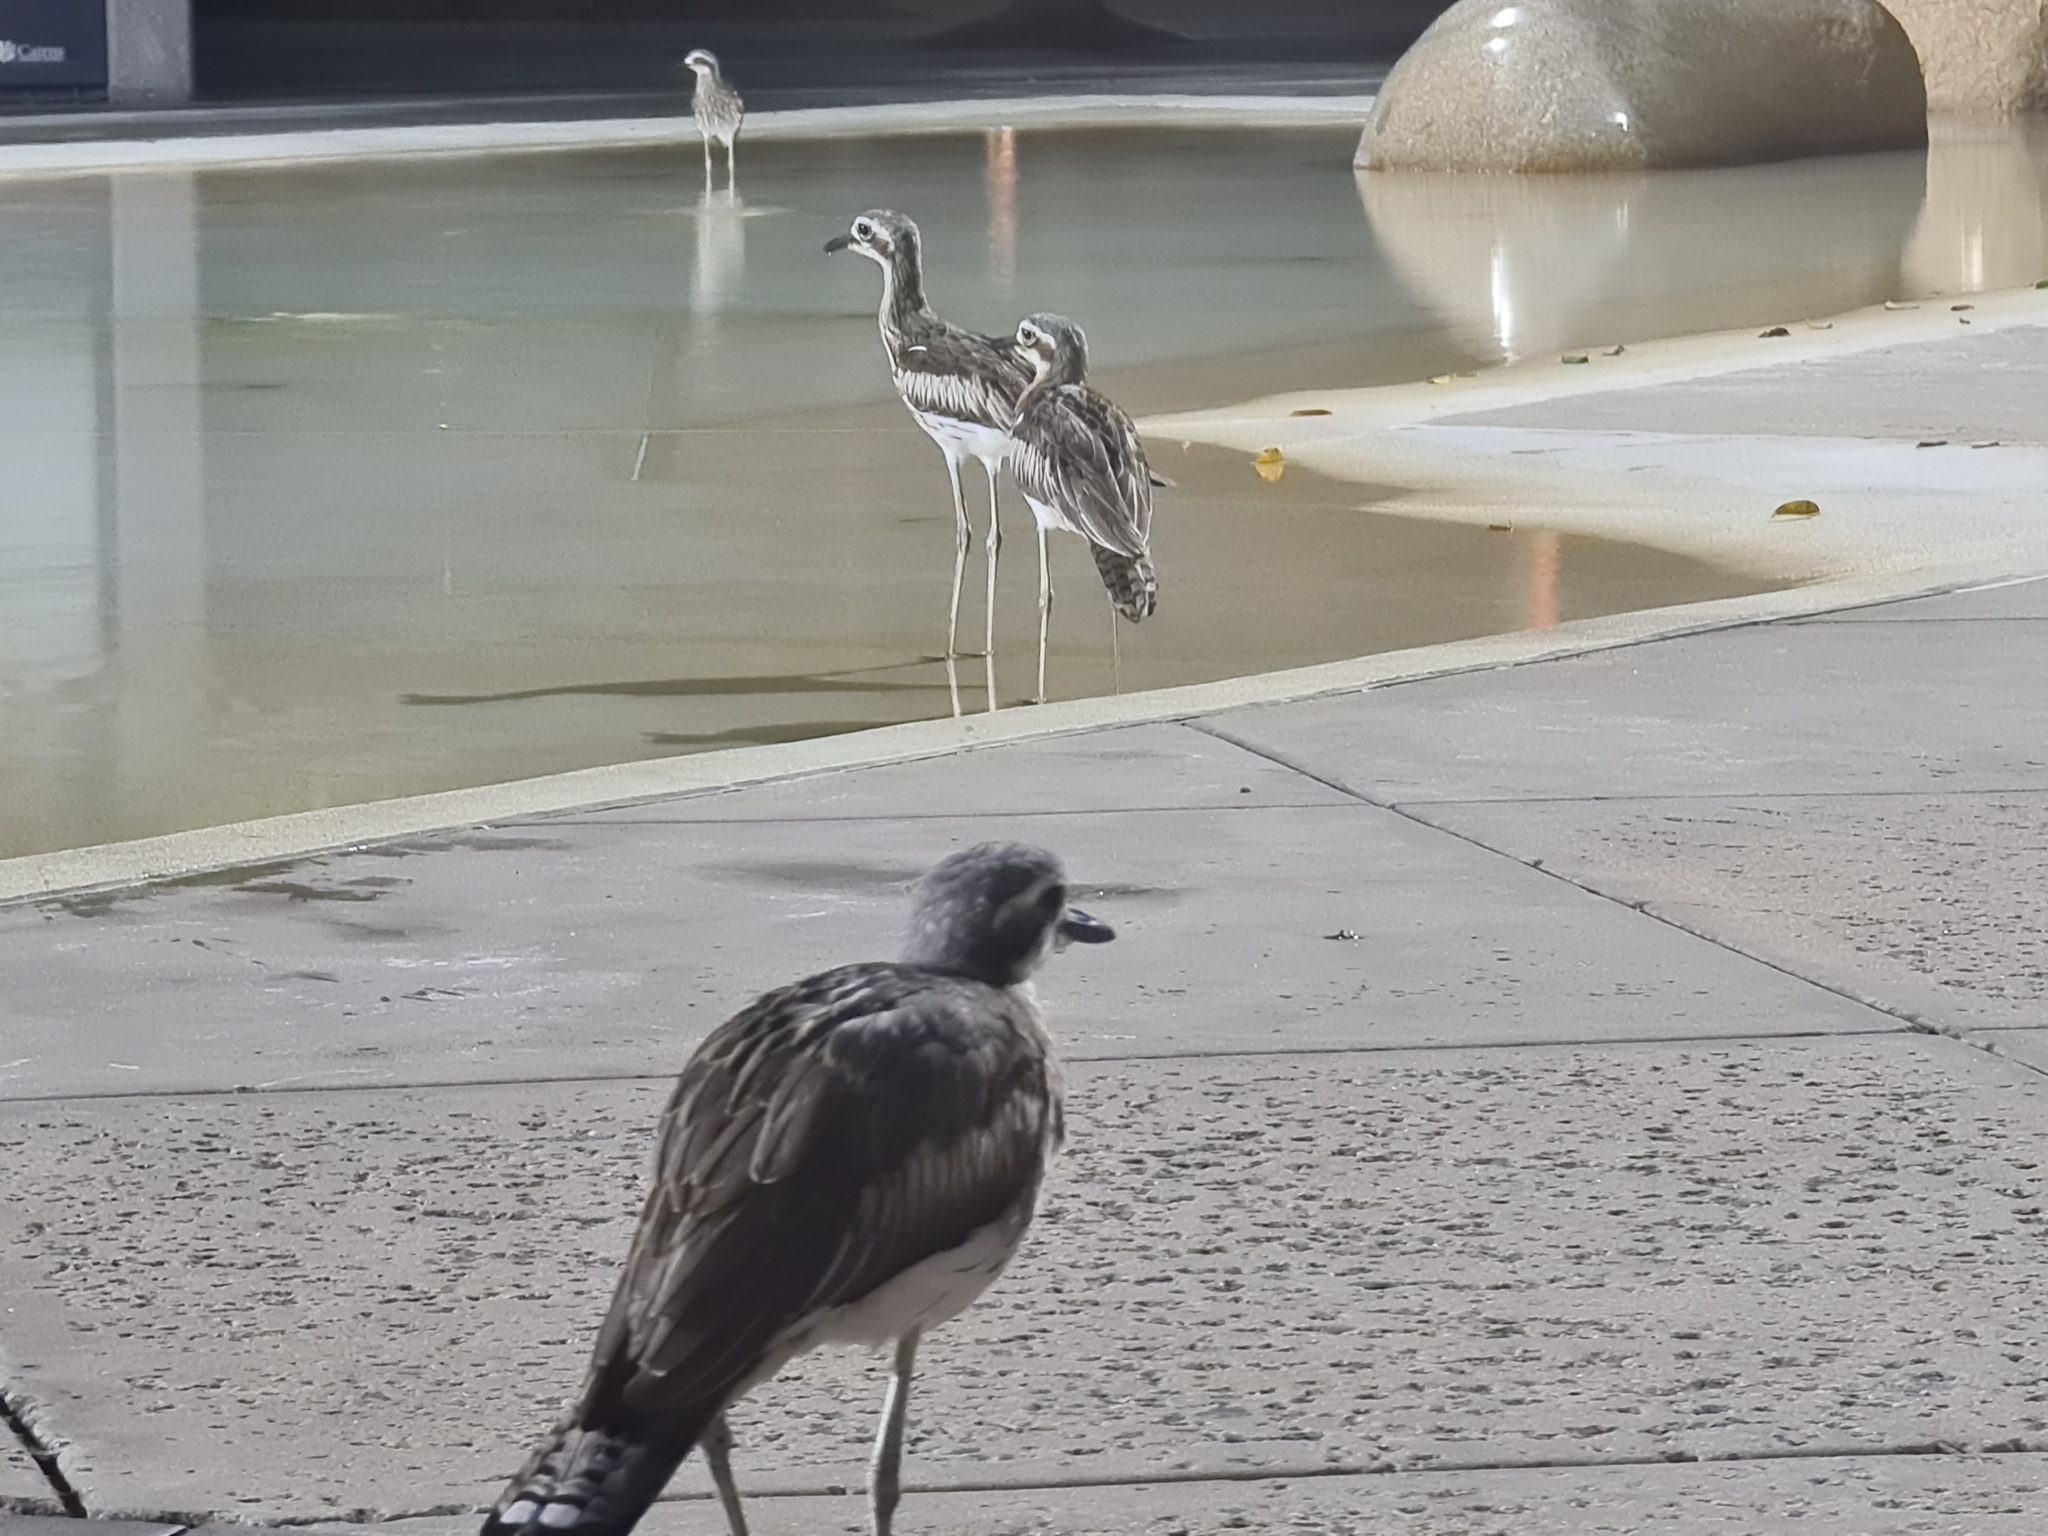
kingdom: Animalia
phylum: Chordata
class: Aves
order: Charadriiformes
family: Burhinidae
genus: Burhinus
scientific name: Burhinus grallarius
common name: Bush stone-curlew
